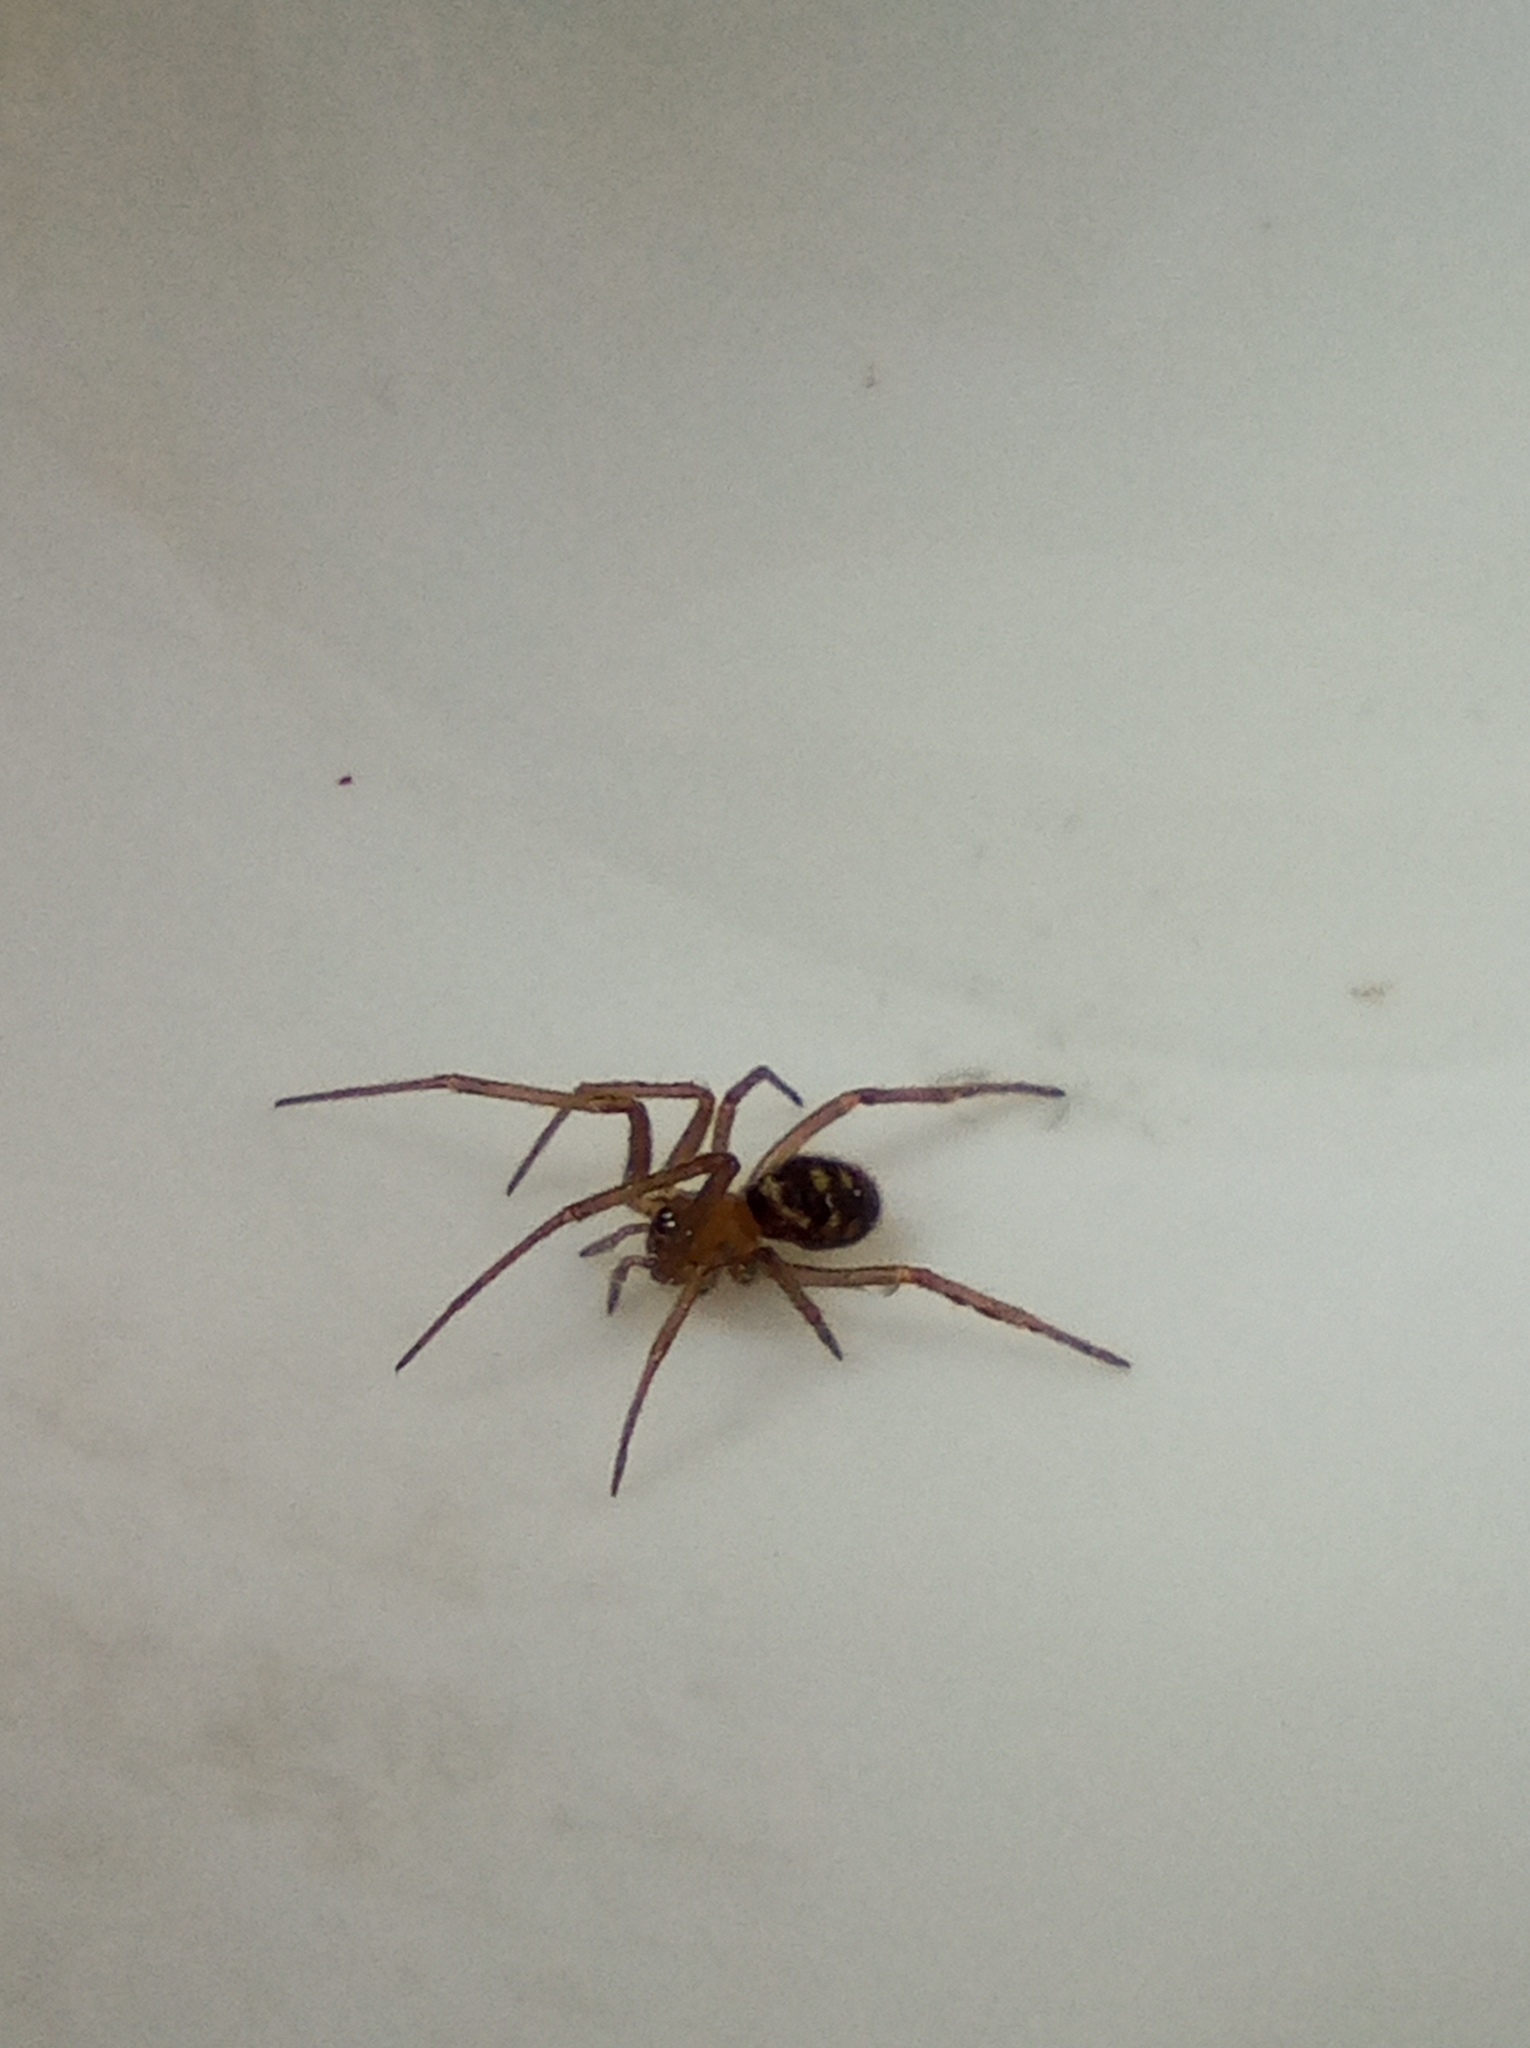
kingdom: Animalia
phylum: Arthropoda
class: Arachnida
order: Araneae
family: Theridiidae
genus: Steatoda
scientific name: Steatoda grossa
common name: False black widow
